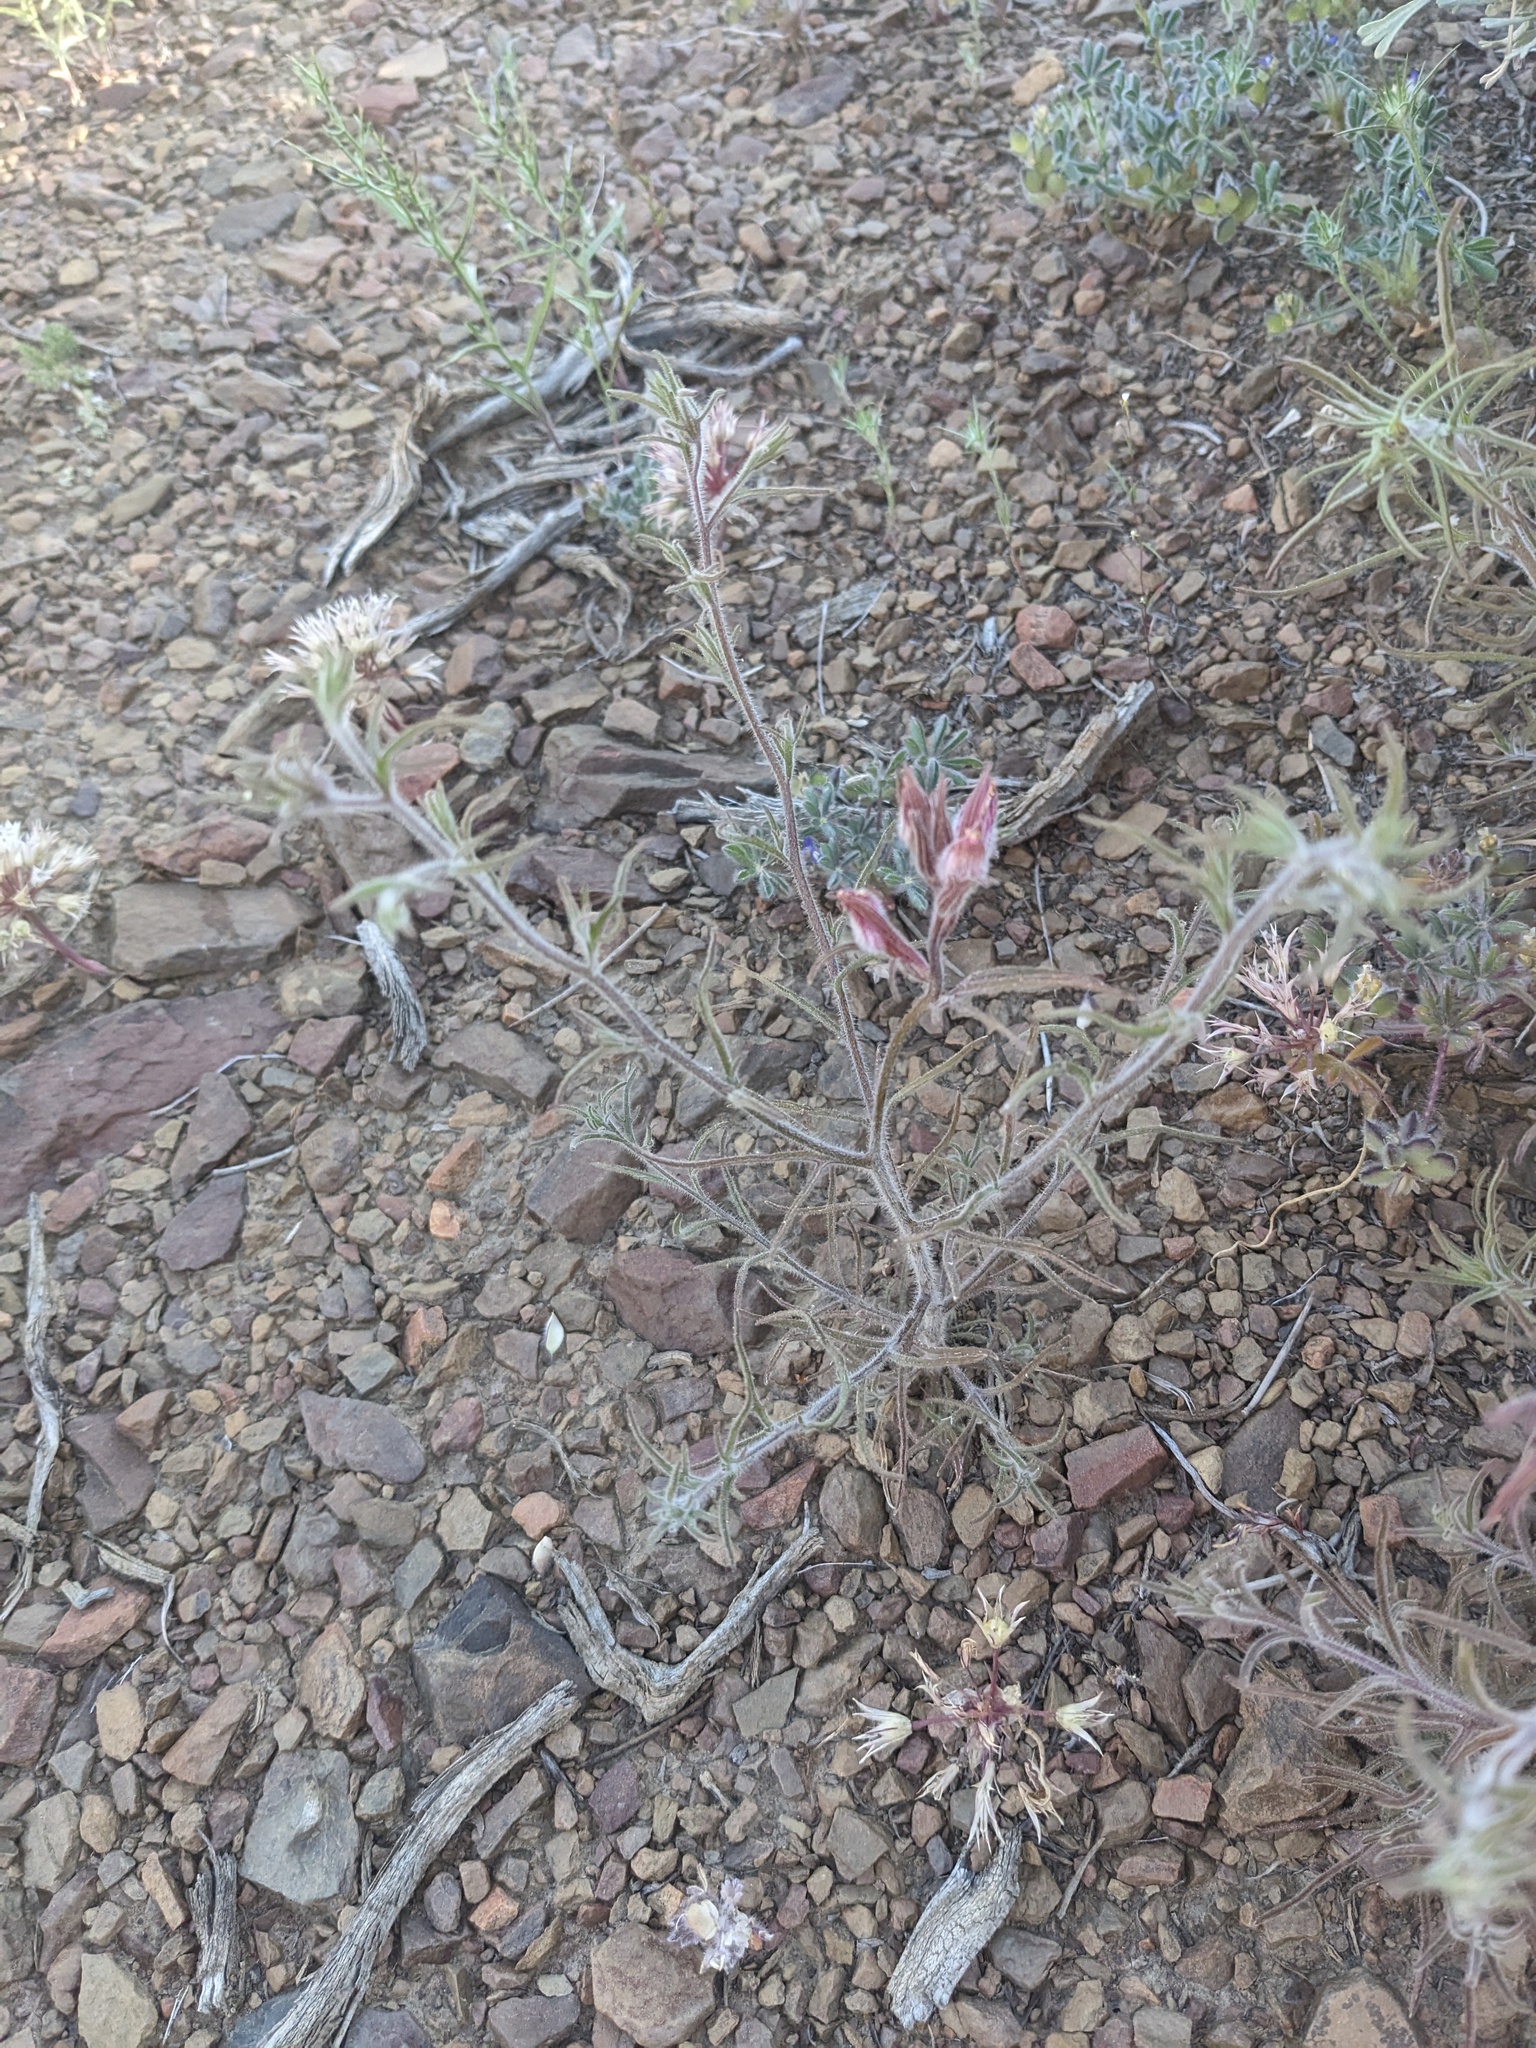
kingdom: Plantae
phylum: Tracheophyta
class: Magnoliopsida
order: Lamiales
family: Orobanchaceae
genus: Cordylanthus
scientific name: Cordylanthus kingii
